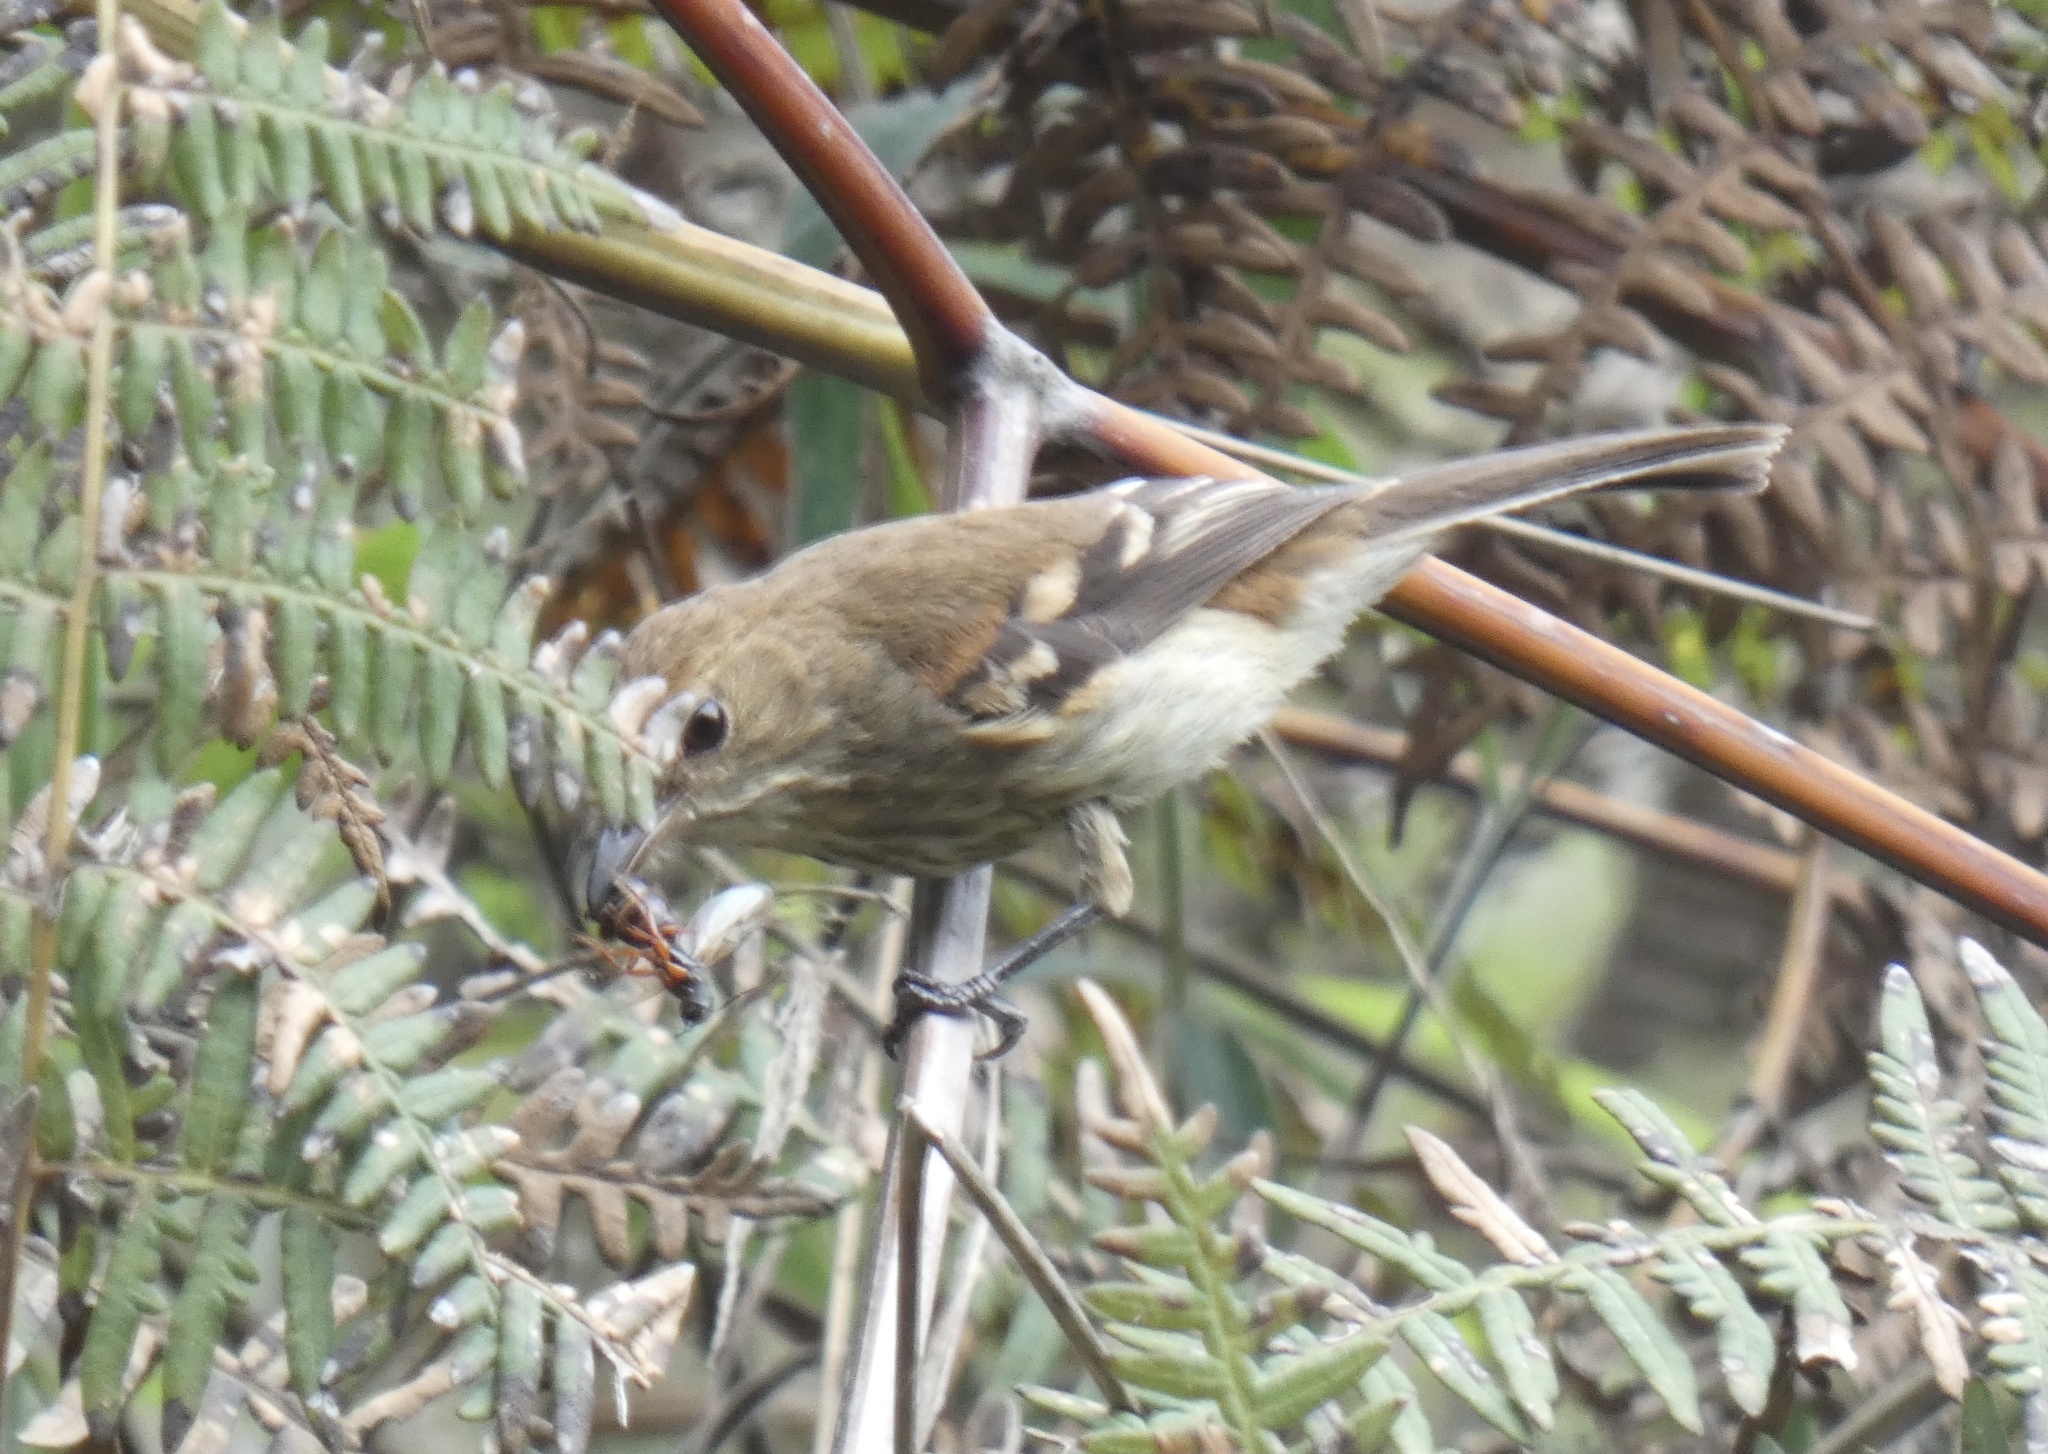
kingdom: Animalia
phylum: Chordata
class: Aves
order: Passeriformes
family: Tyrannidae
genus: Myiophobus
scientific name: Myiophobus fasciatus
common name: Bran-colored flycatcher
